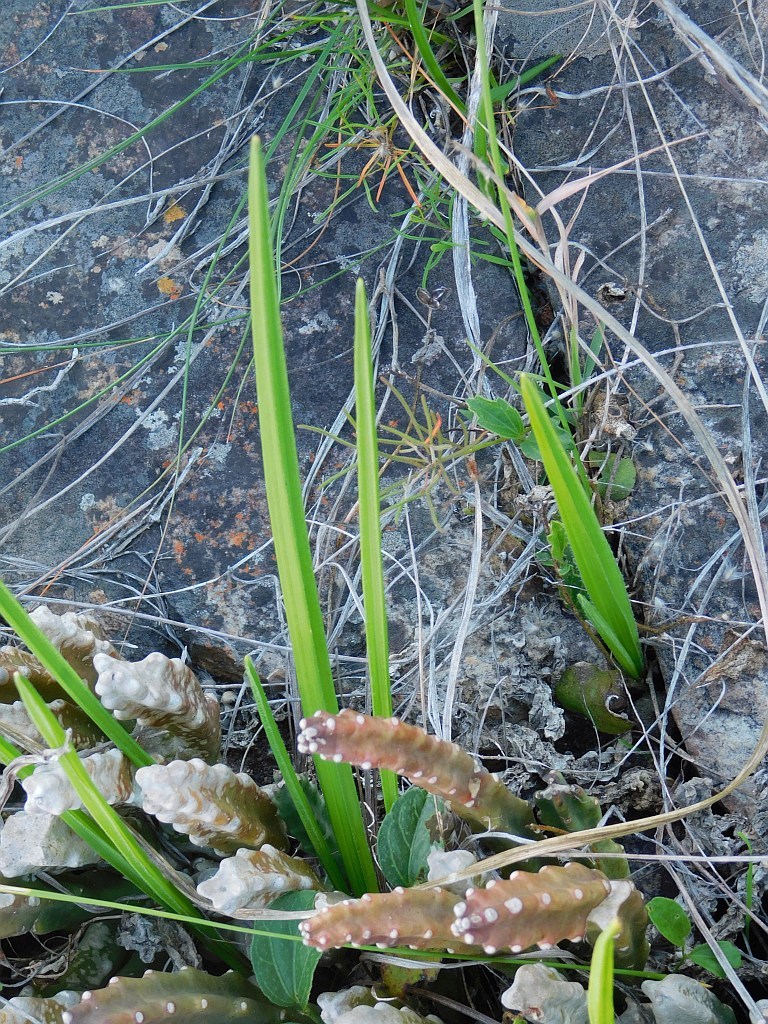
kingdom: Plantae
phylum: Tracheophyta
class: Liliopsida
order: Asparagales
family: Iridaceae
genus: Tritonia
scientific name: Tritonia cooperi
